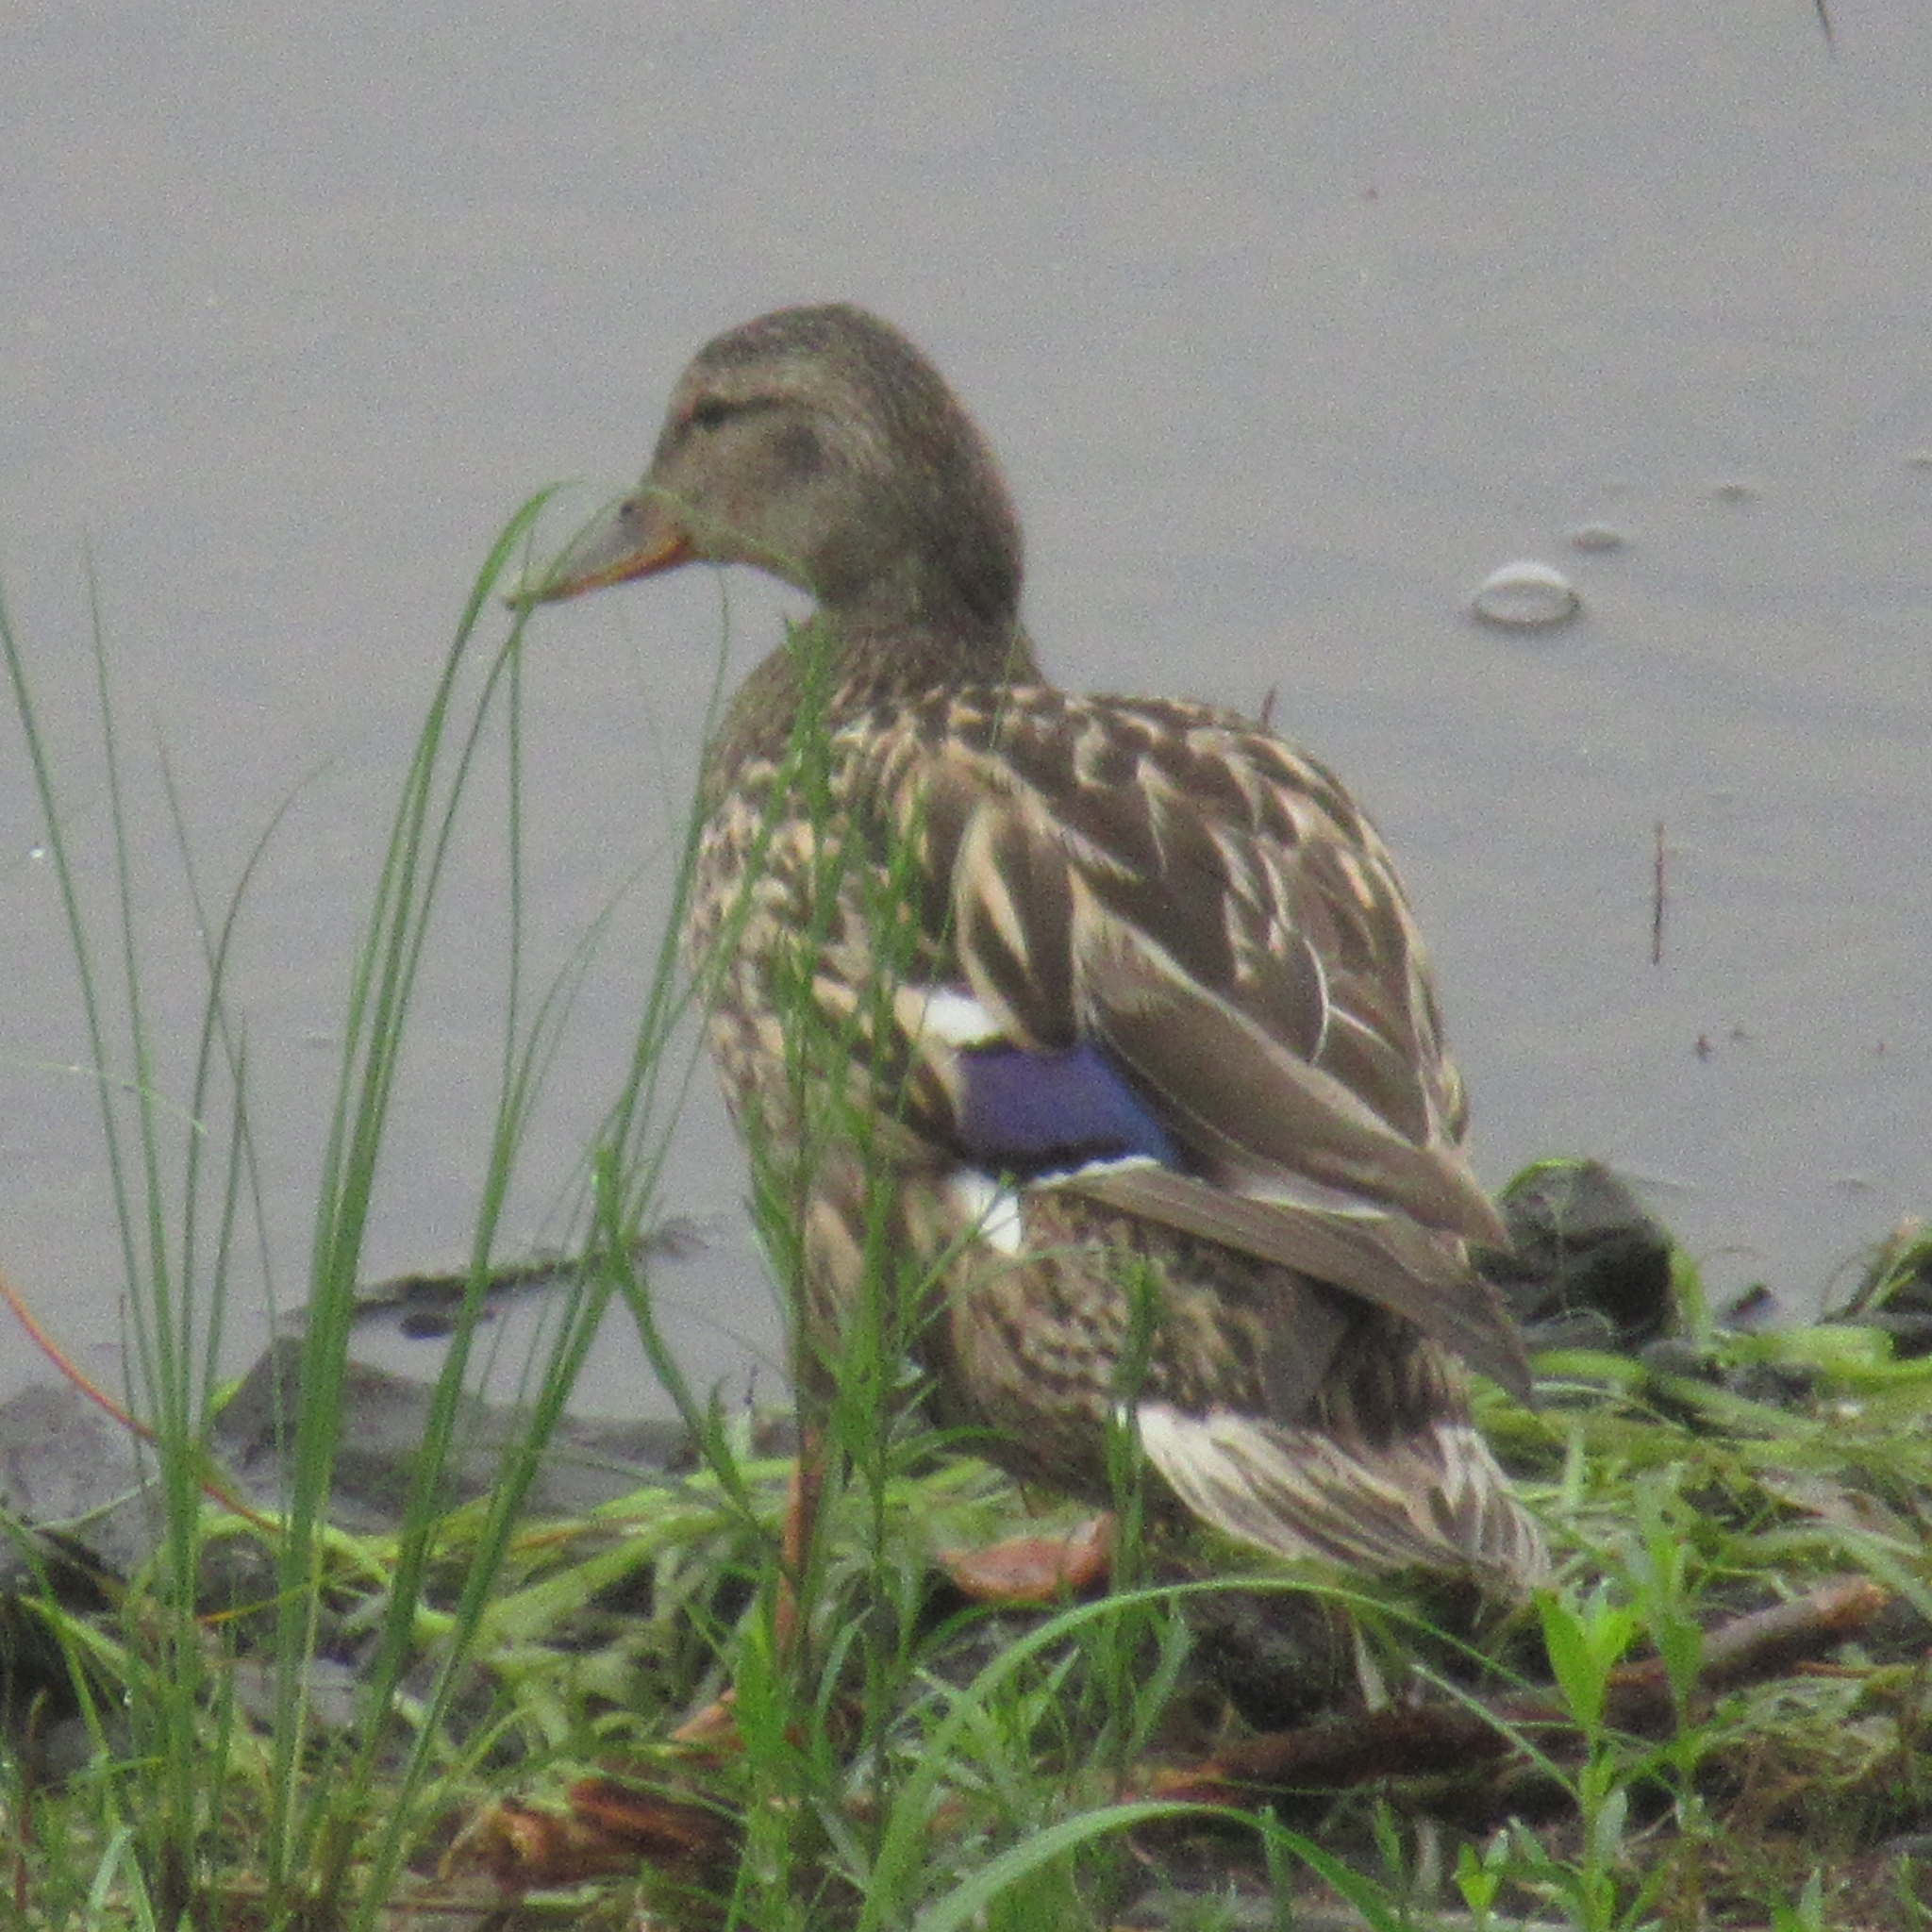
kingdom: Animalia
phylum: Chordata
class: Aves
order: Anseriformes
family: Anatidae
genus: Anas
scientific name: Anas platyrhynchos
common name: Mallard
